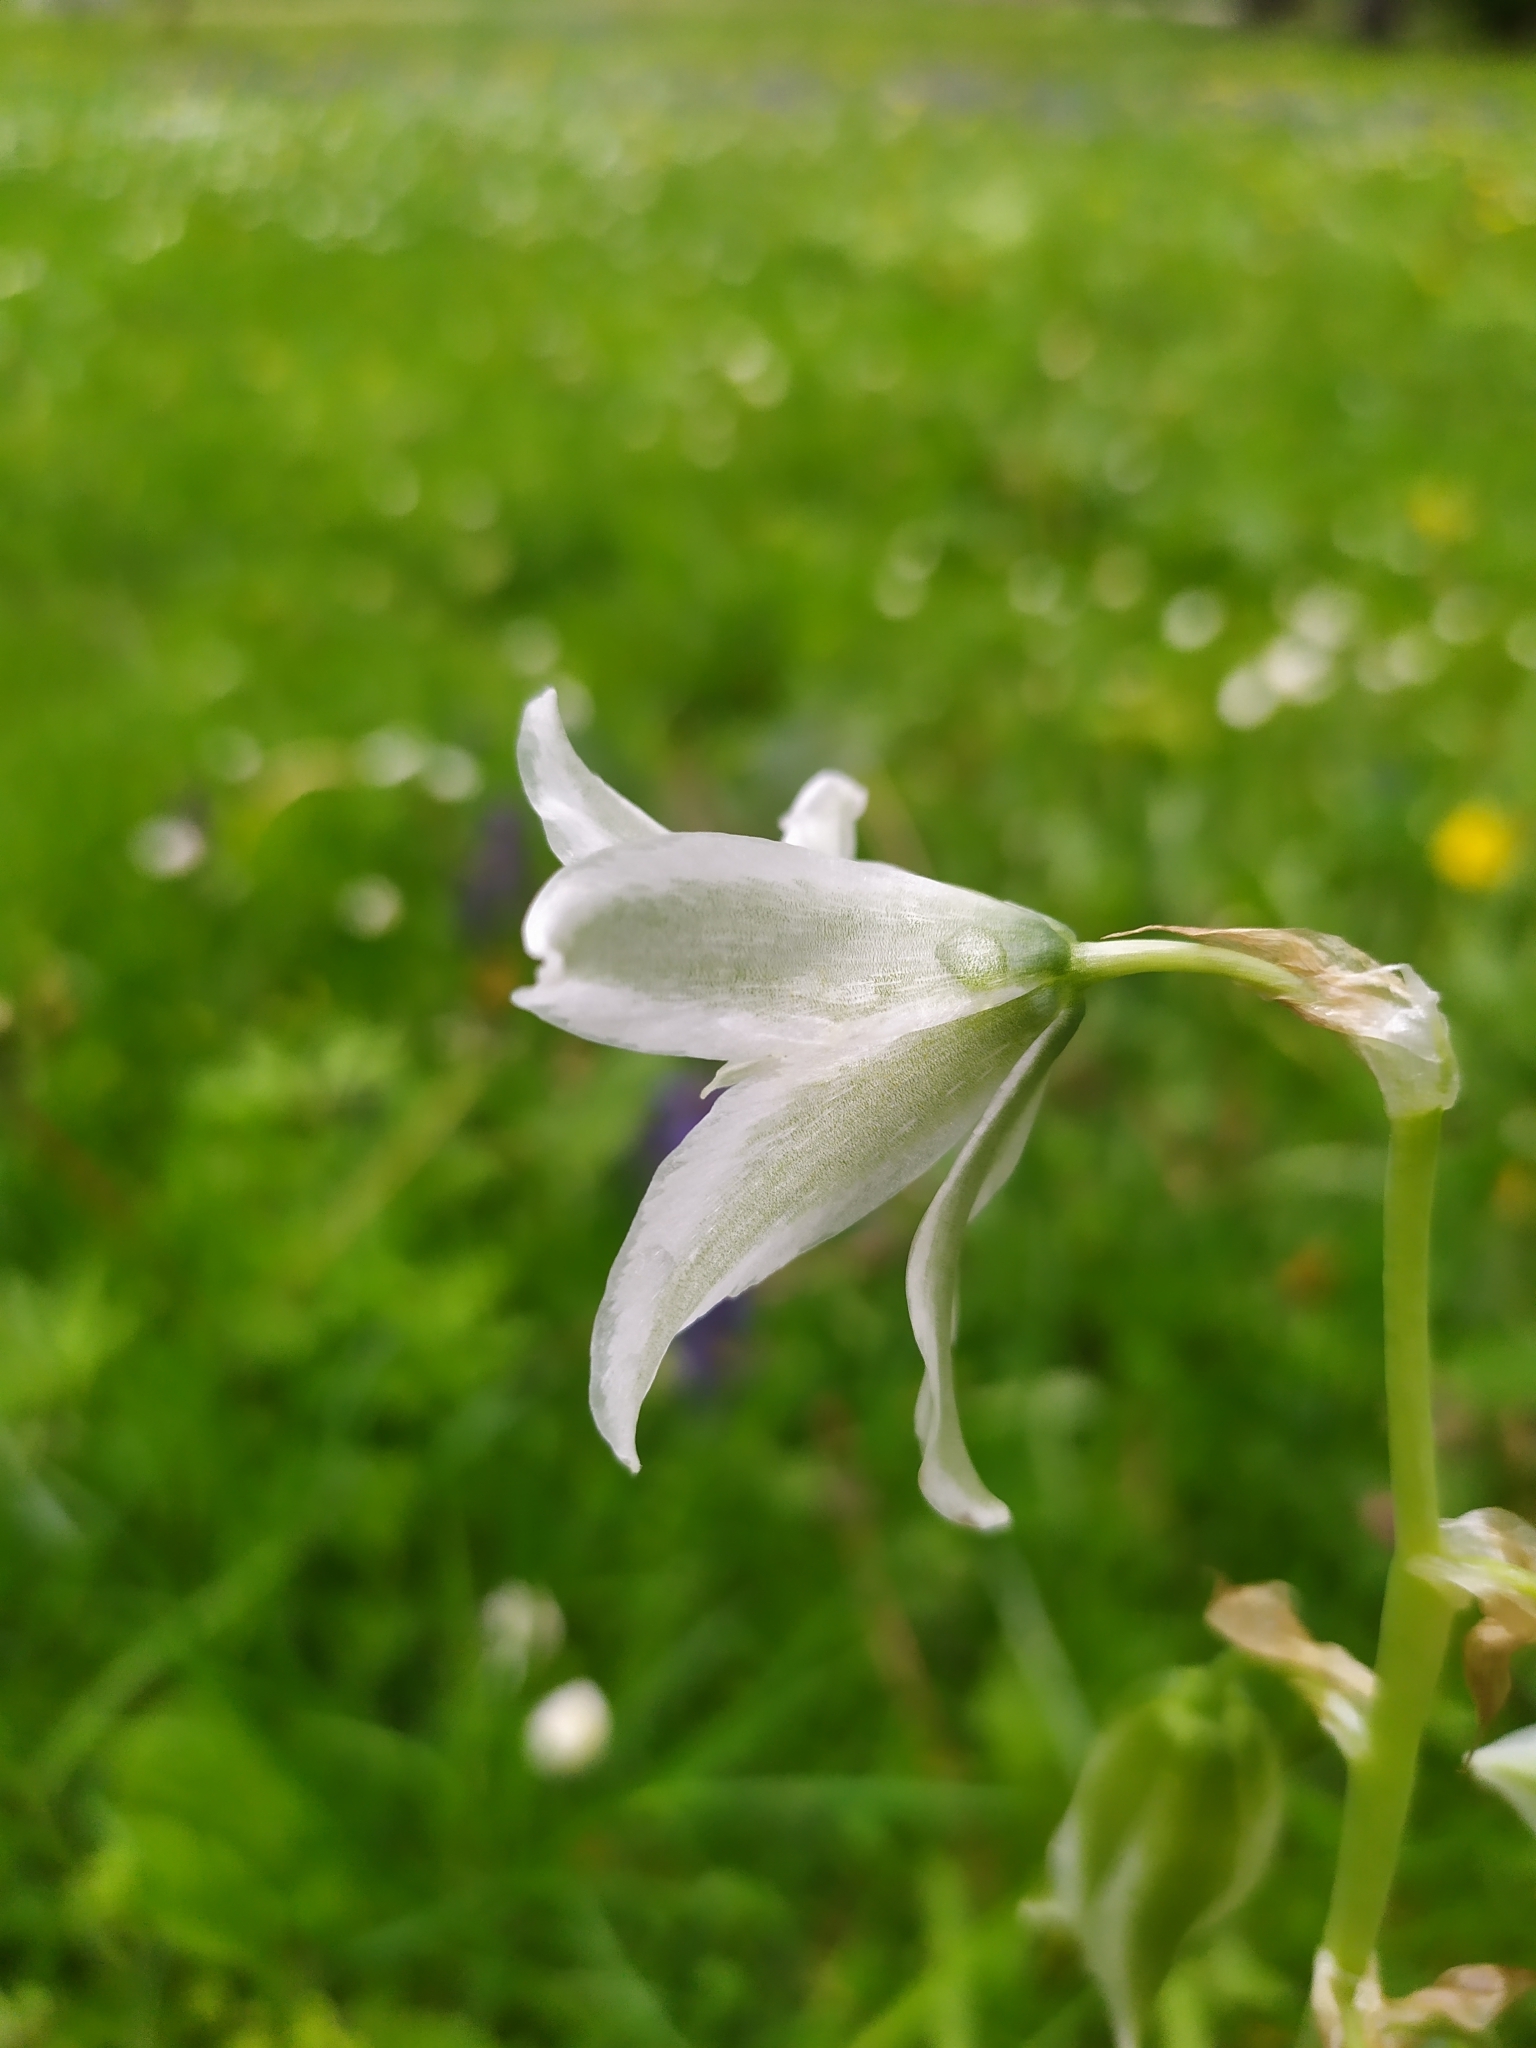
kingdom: Plantae
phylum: Tracheophyta
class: Liliopsida
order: Asparagales
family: Asparagaceae
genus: Ornithogalum
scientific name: Ornithogalum nutans
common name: Drooping star-of-bethlehem
